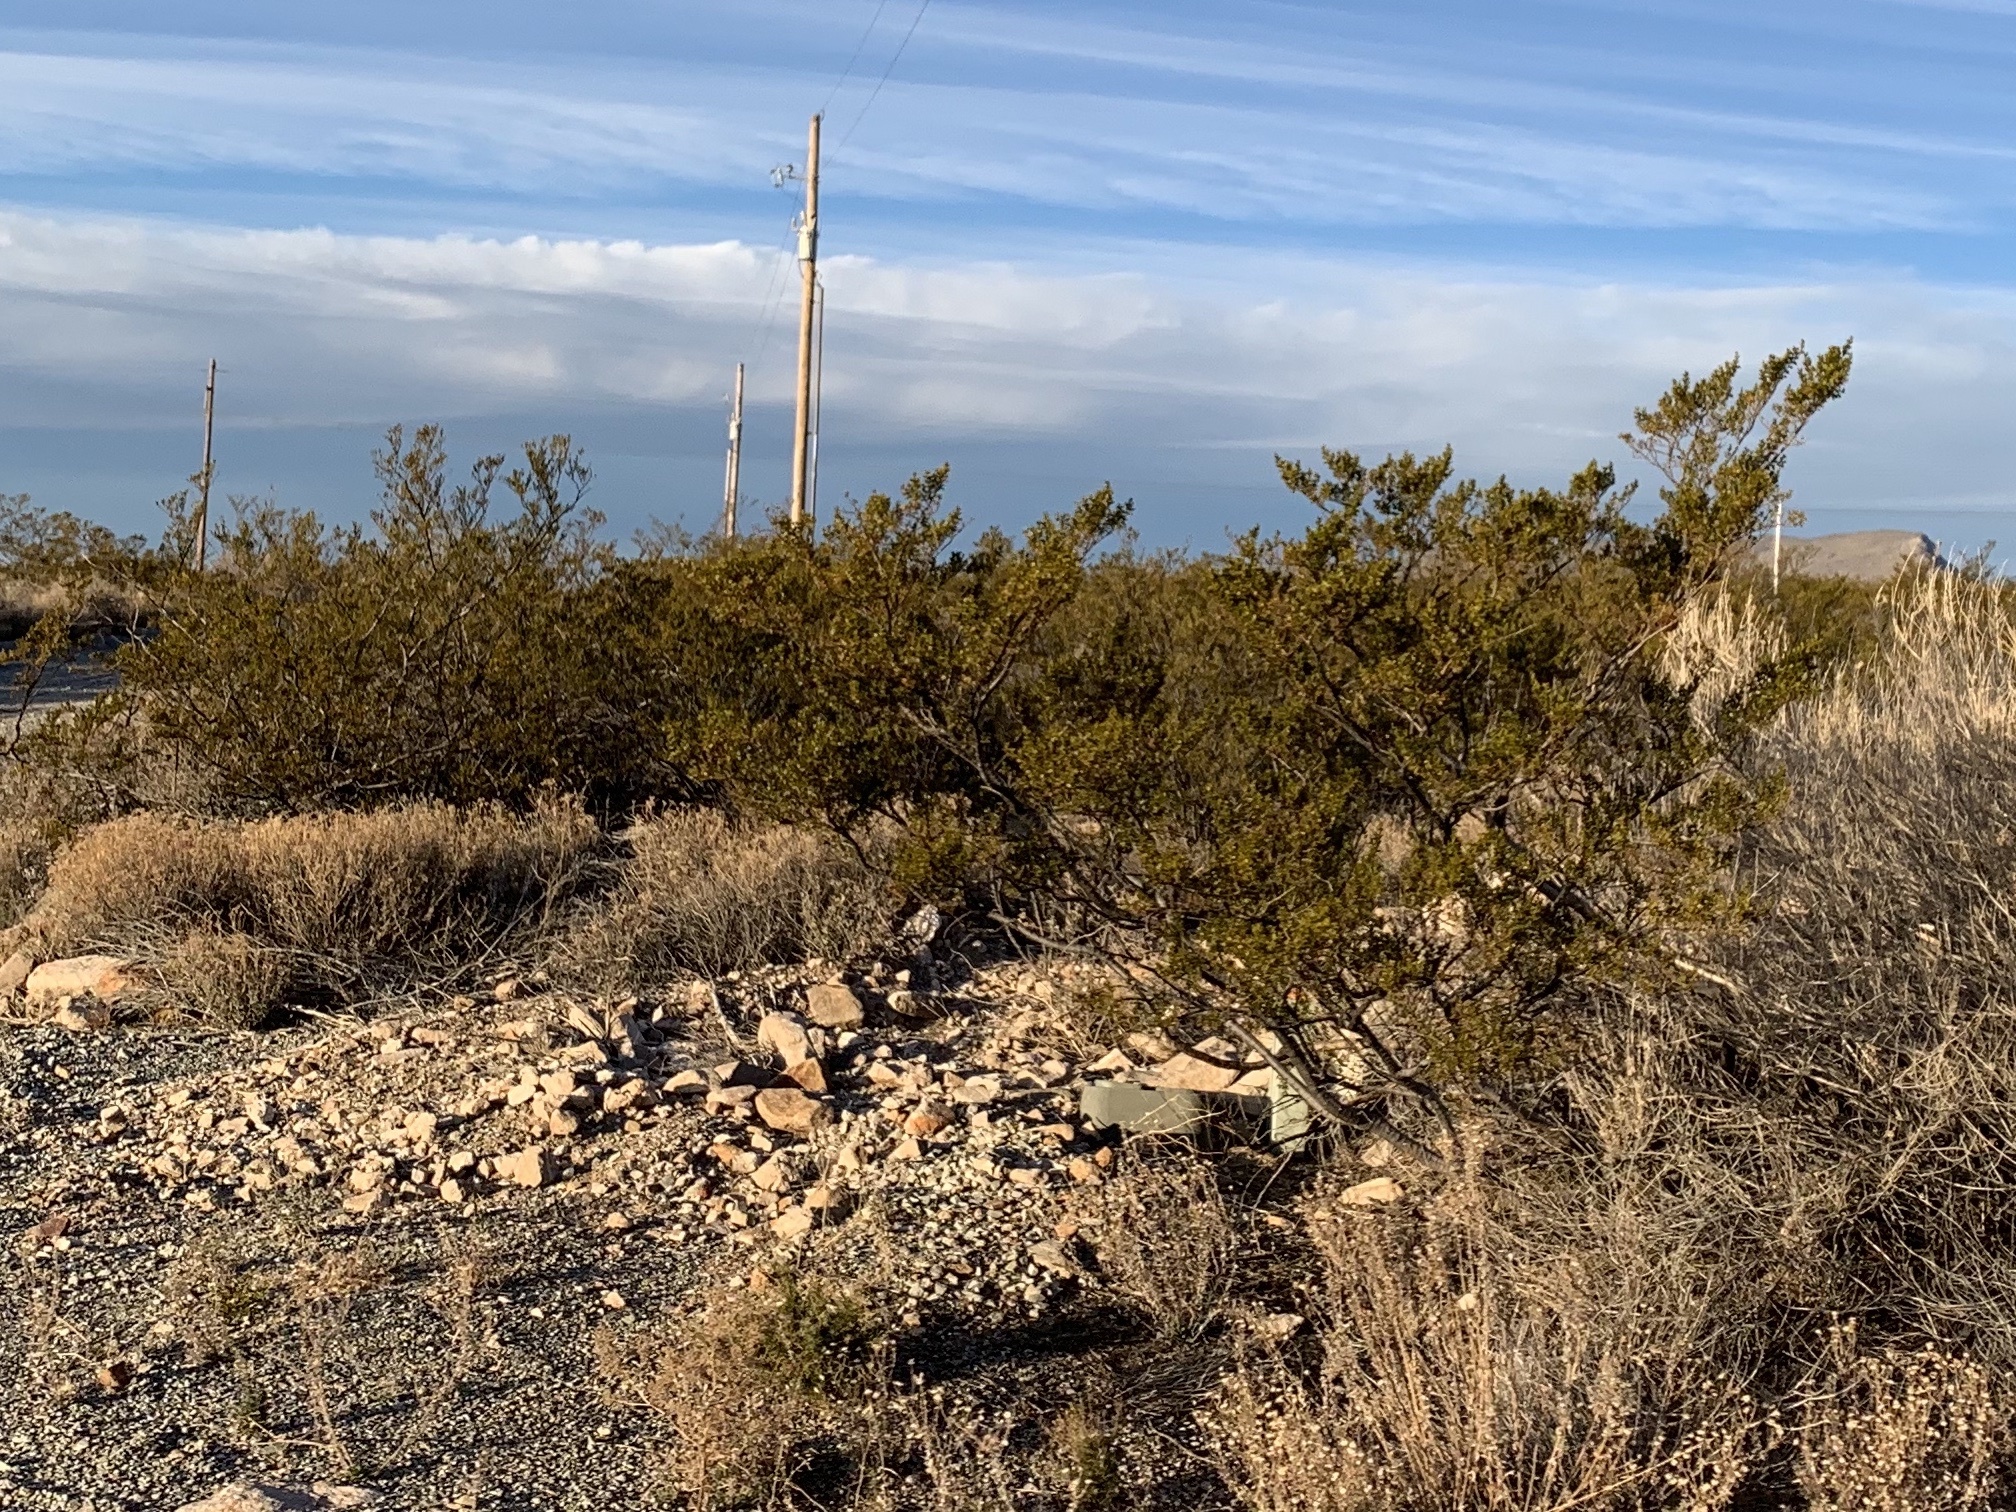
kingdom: Plantae
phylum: Tracheophyta
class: Magnoliopsida
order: Zygophyllales
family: Zygophyllaceae
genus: Larrea
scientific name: Larrea tridentata
